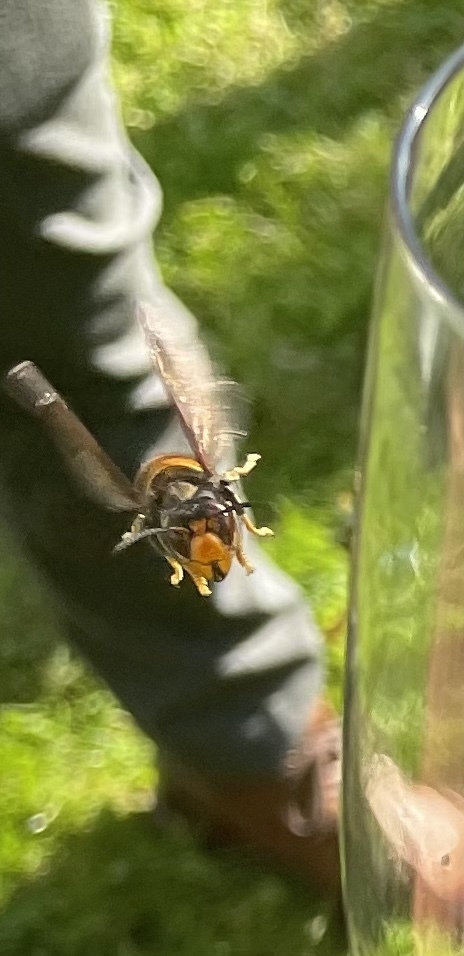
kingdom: Animalia
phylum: Arthropoda
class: Insecta
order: Hymenoptera
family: Vespidae
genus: Vespa
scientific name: Vespa velutina
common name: Asian hornet
